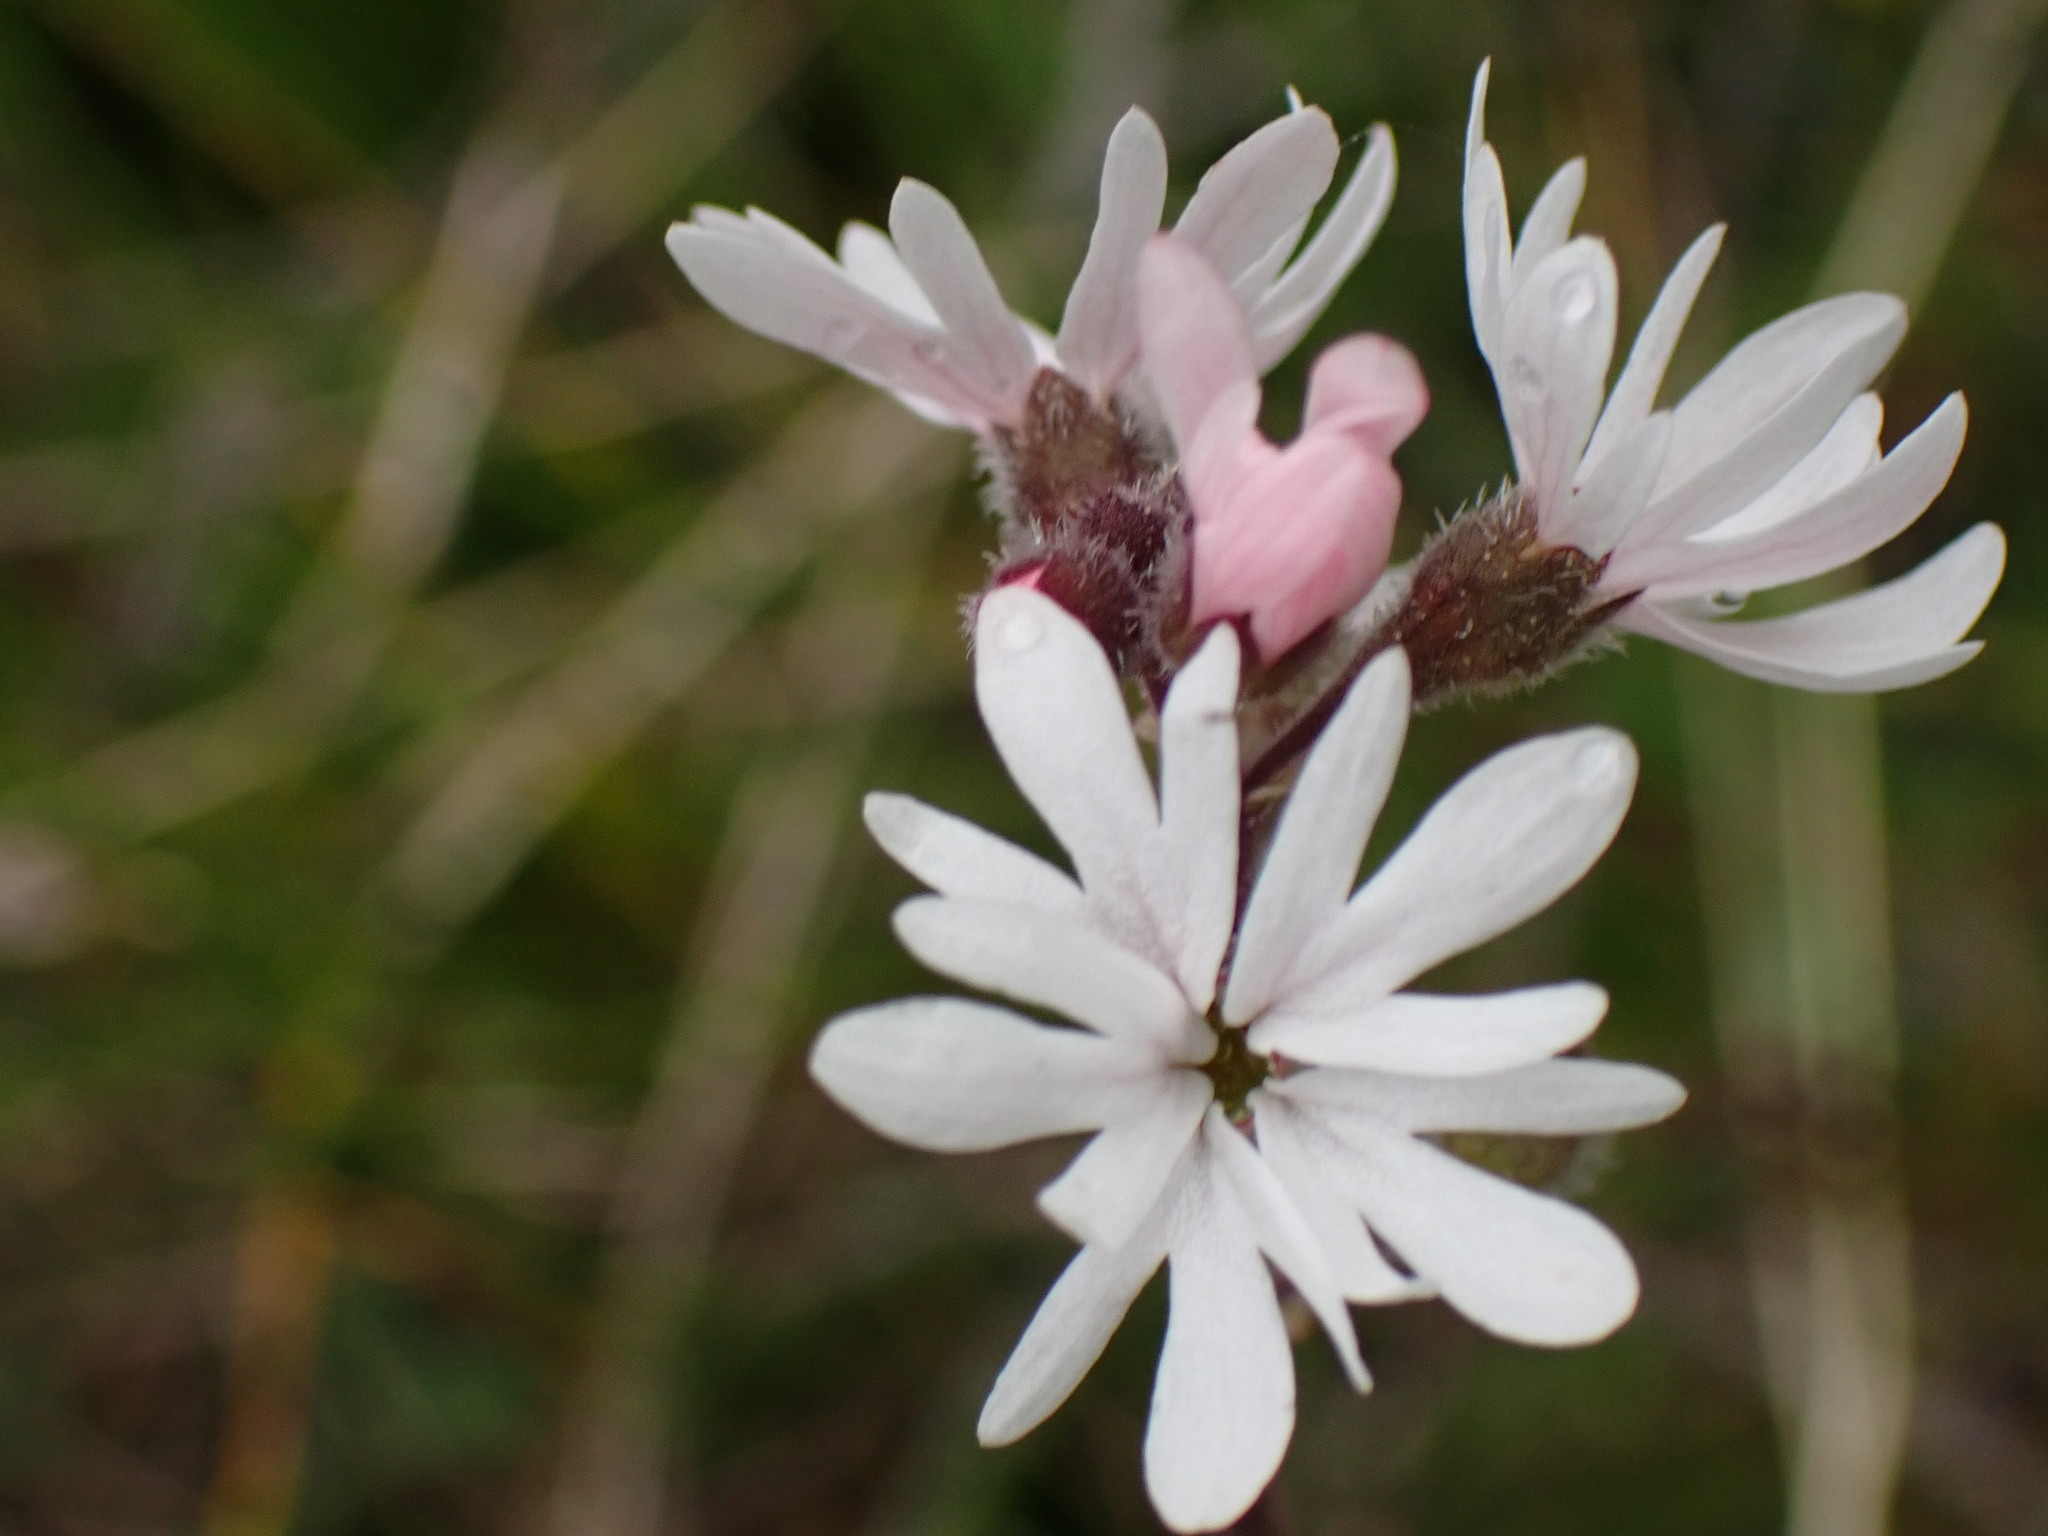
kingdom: Plantae
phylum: Tracheophyta
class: Magnoliopsida
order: Saxifragales
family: Saxifragaceae
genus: Lithophragma
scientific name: Lithophragma parviflorum
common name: Small-flowered fringe-cup
